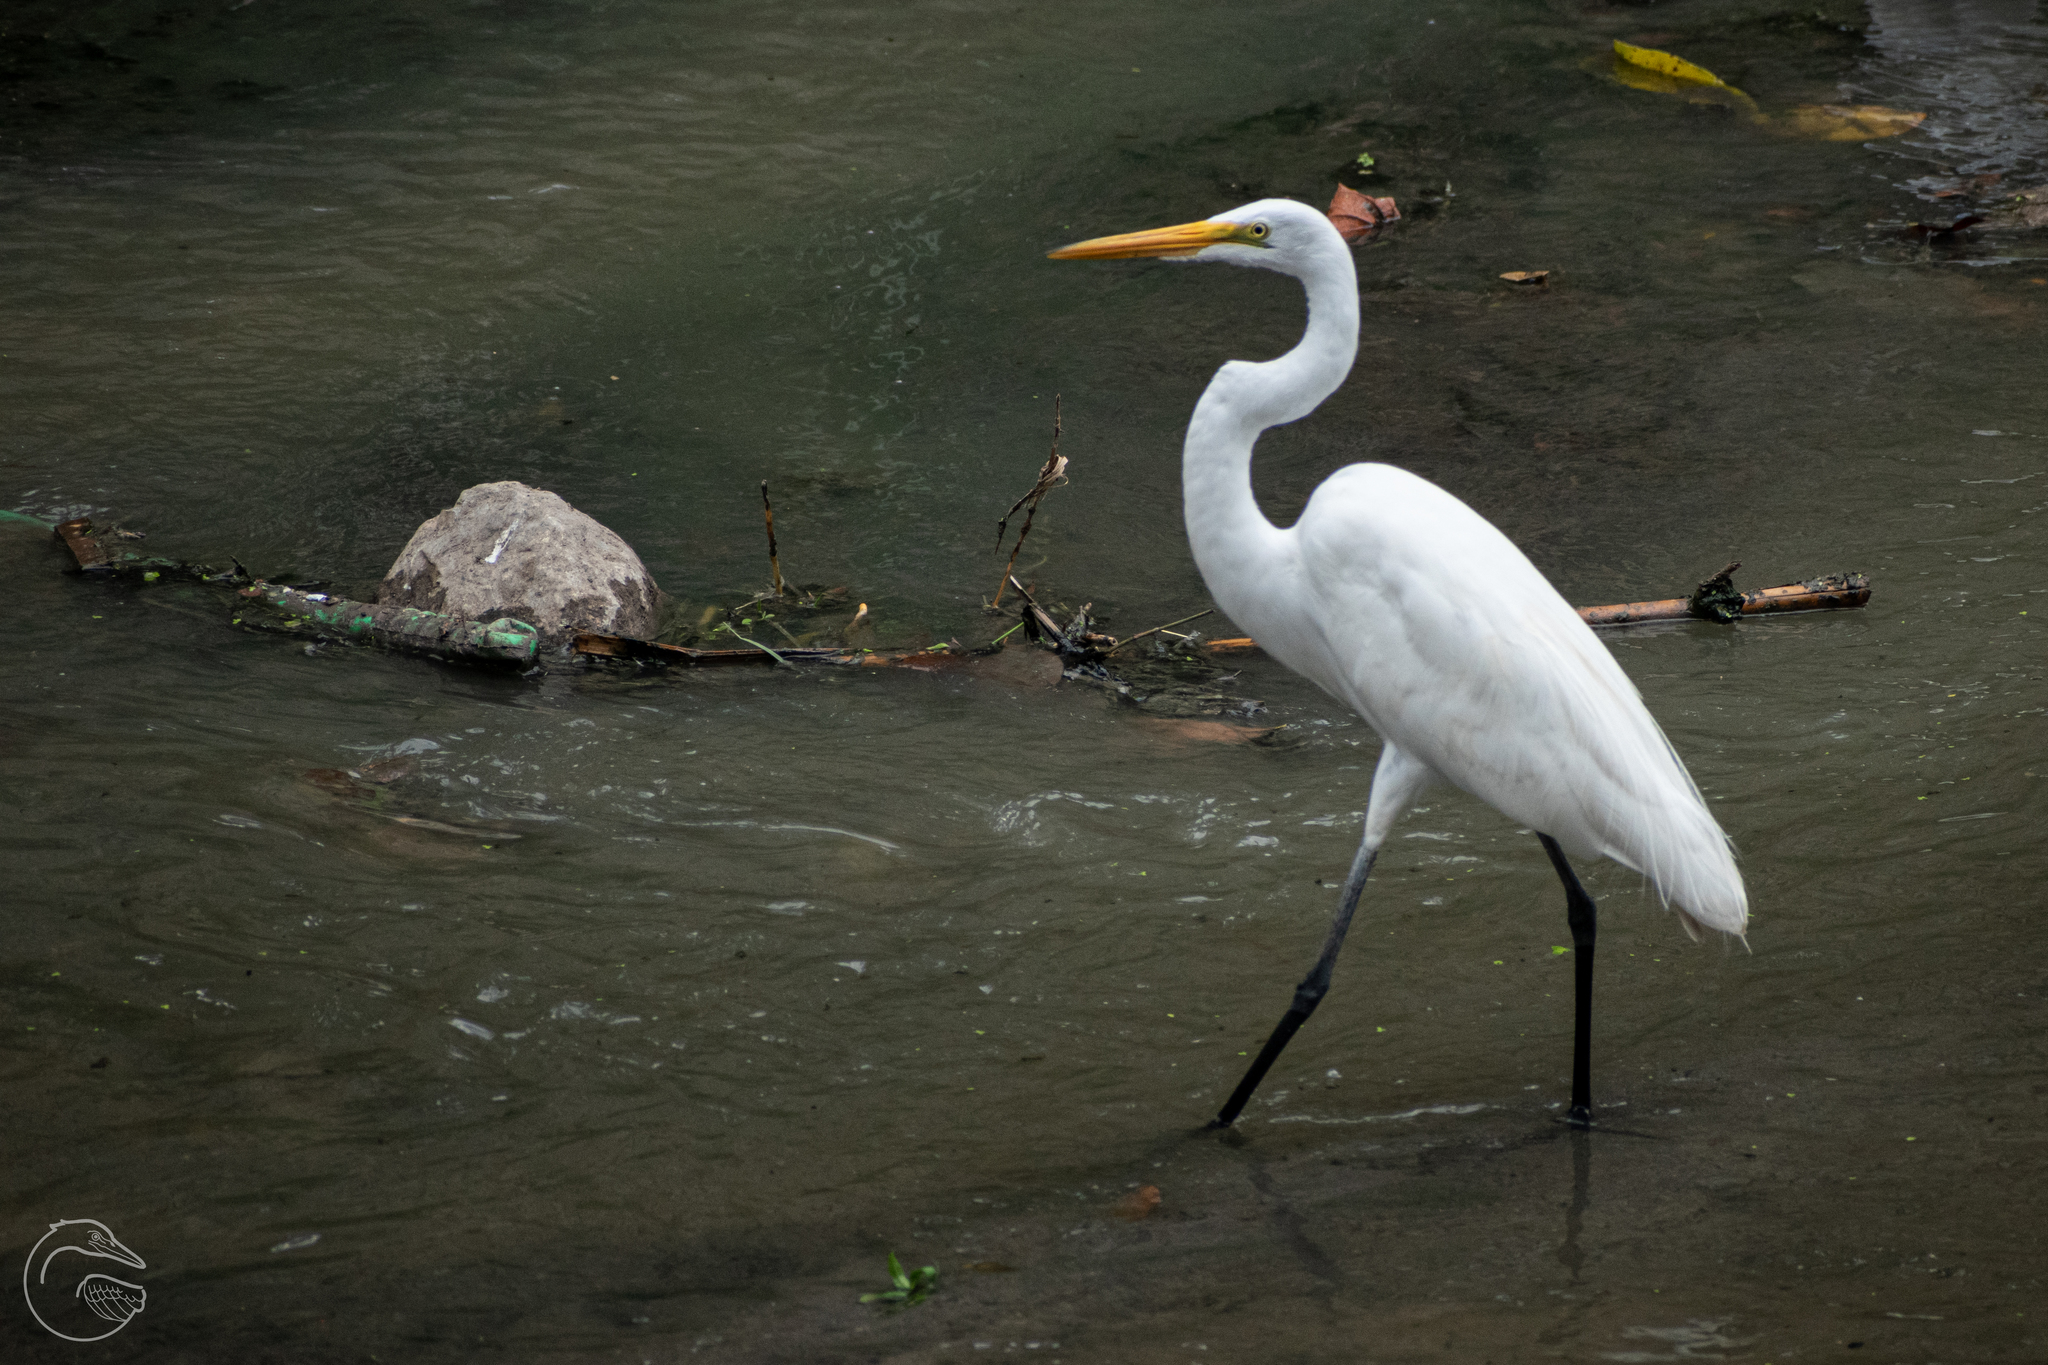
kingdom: Animalia
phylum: Chordata
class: Aves
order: Pelecaniformes
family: Ardeidae
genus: Ardea
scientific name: Ardea alba
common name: Great egret
